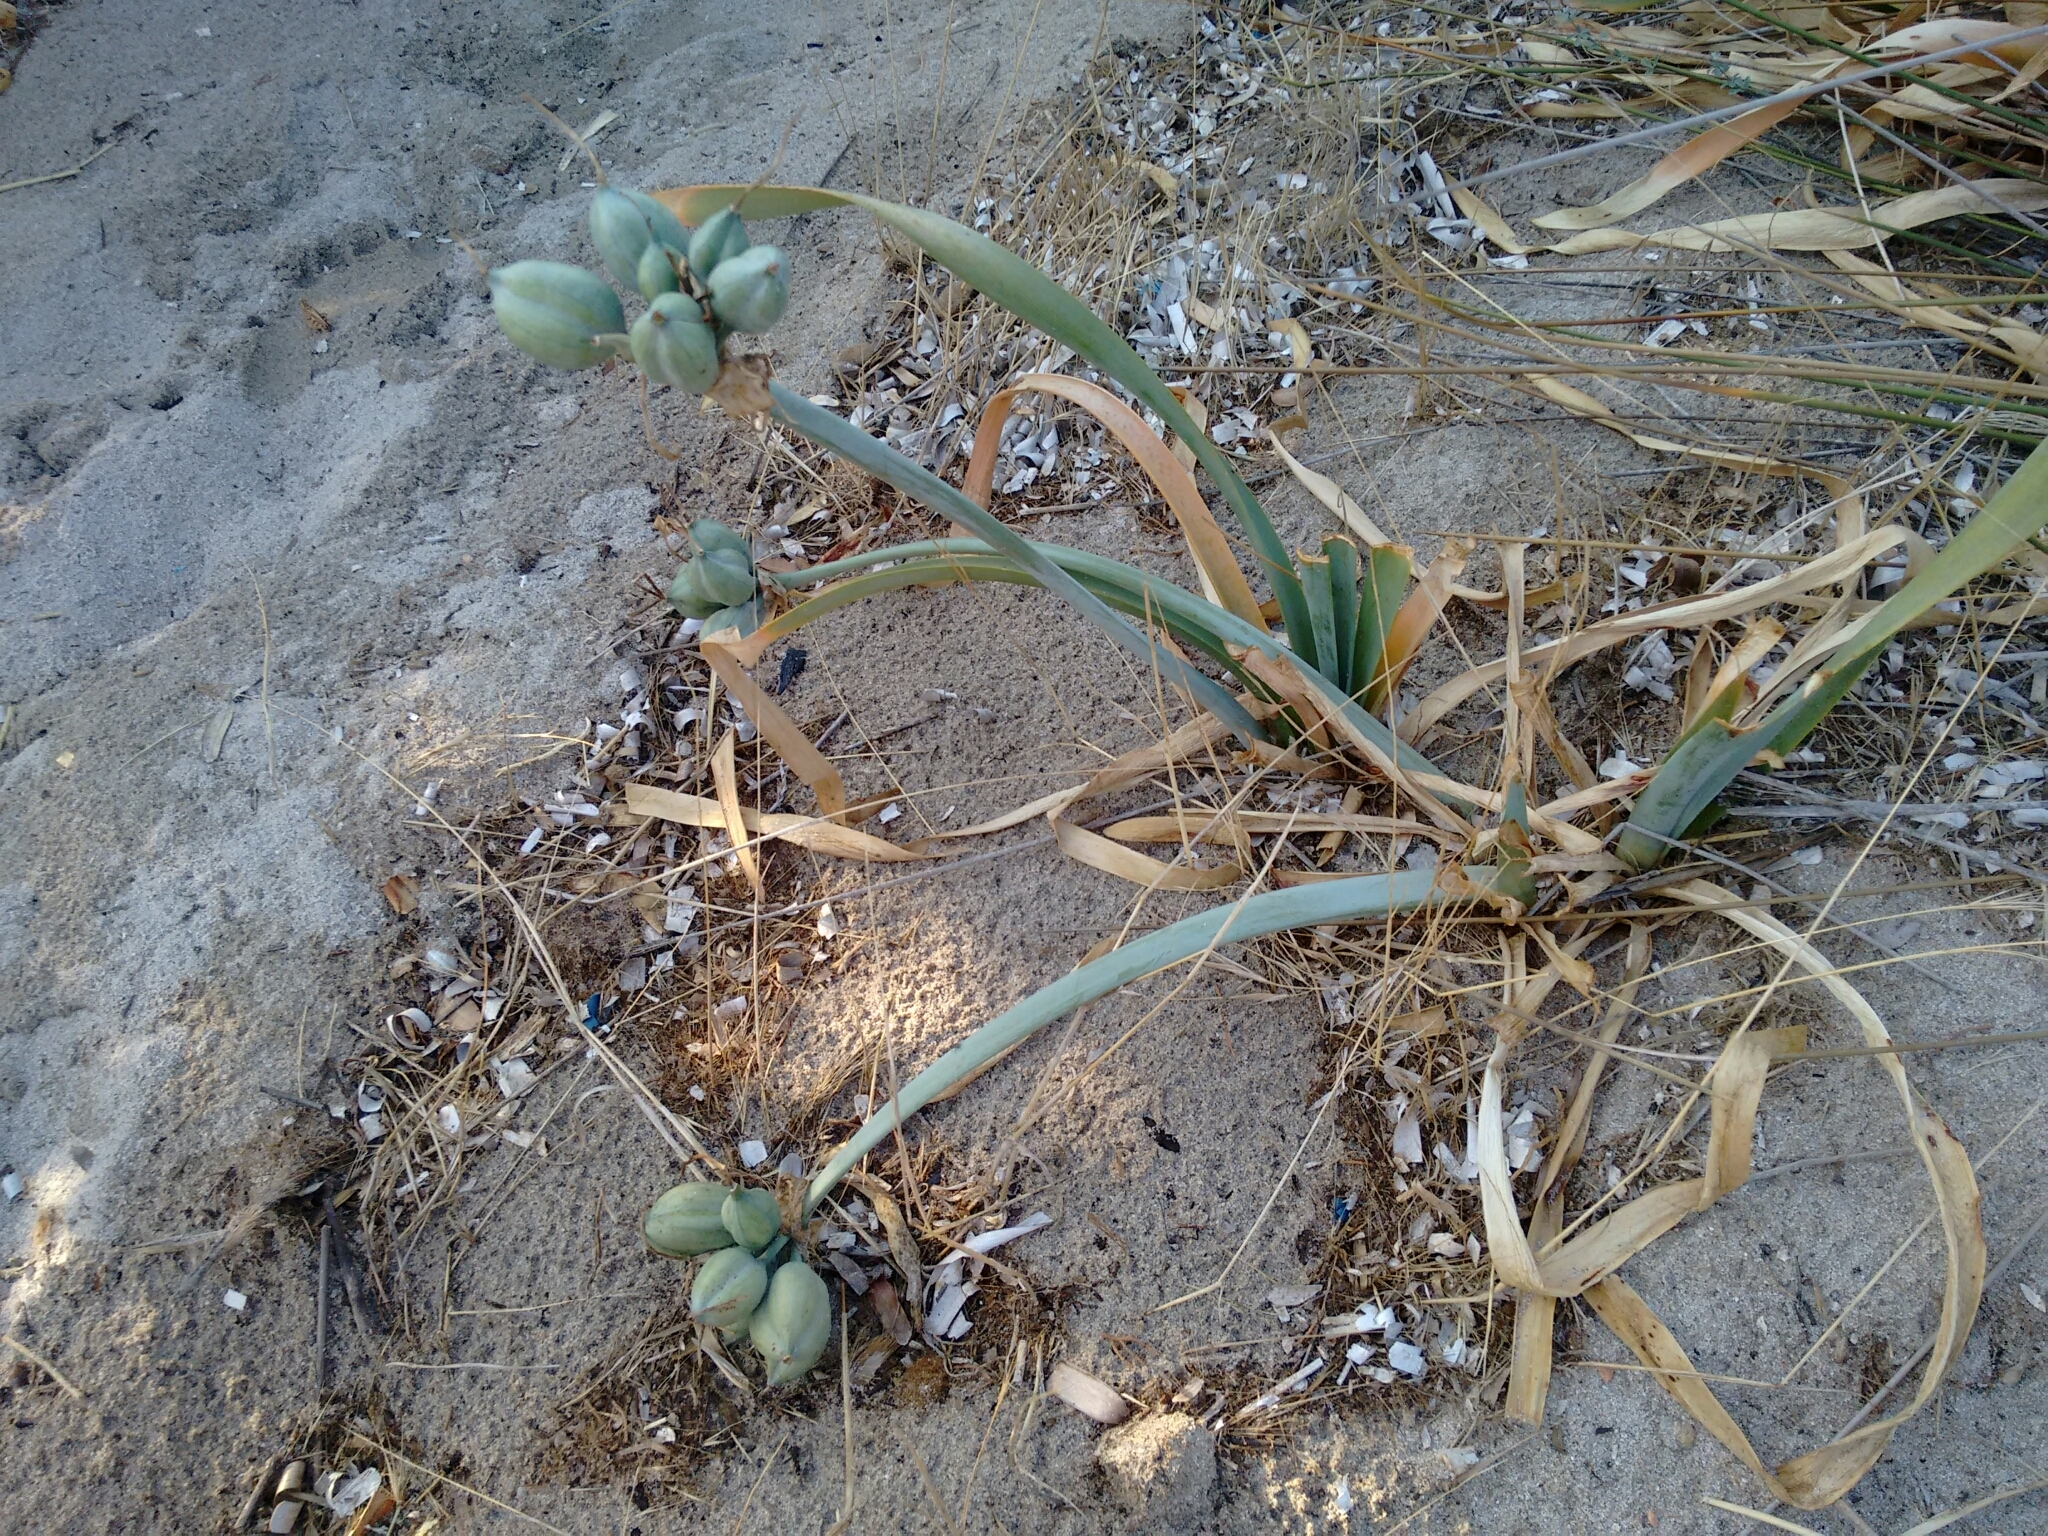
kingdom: Plantae
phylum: Tracheophyta
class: Liliopsida
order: Asparagales
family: Amaryllidaceae
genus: Pancratium
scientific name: Pancratium maritimum
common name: Sea-daffodil
